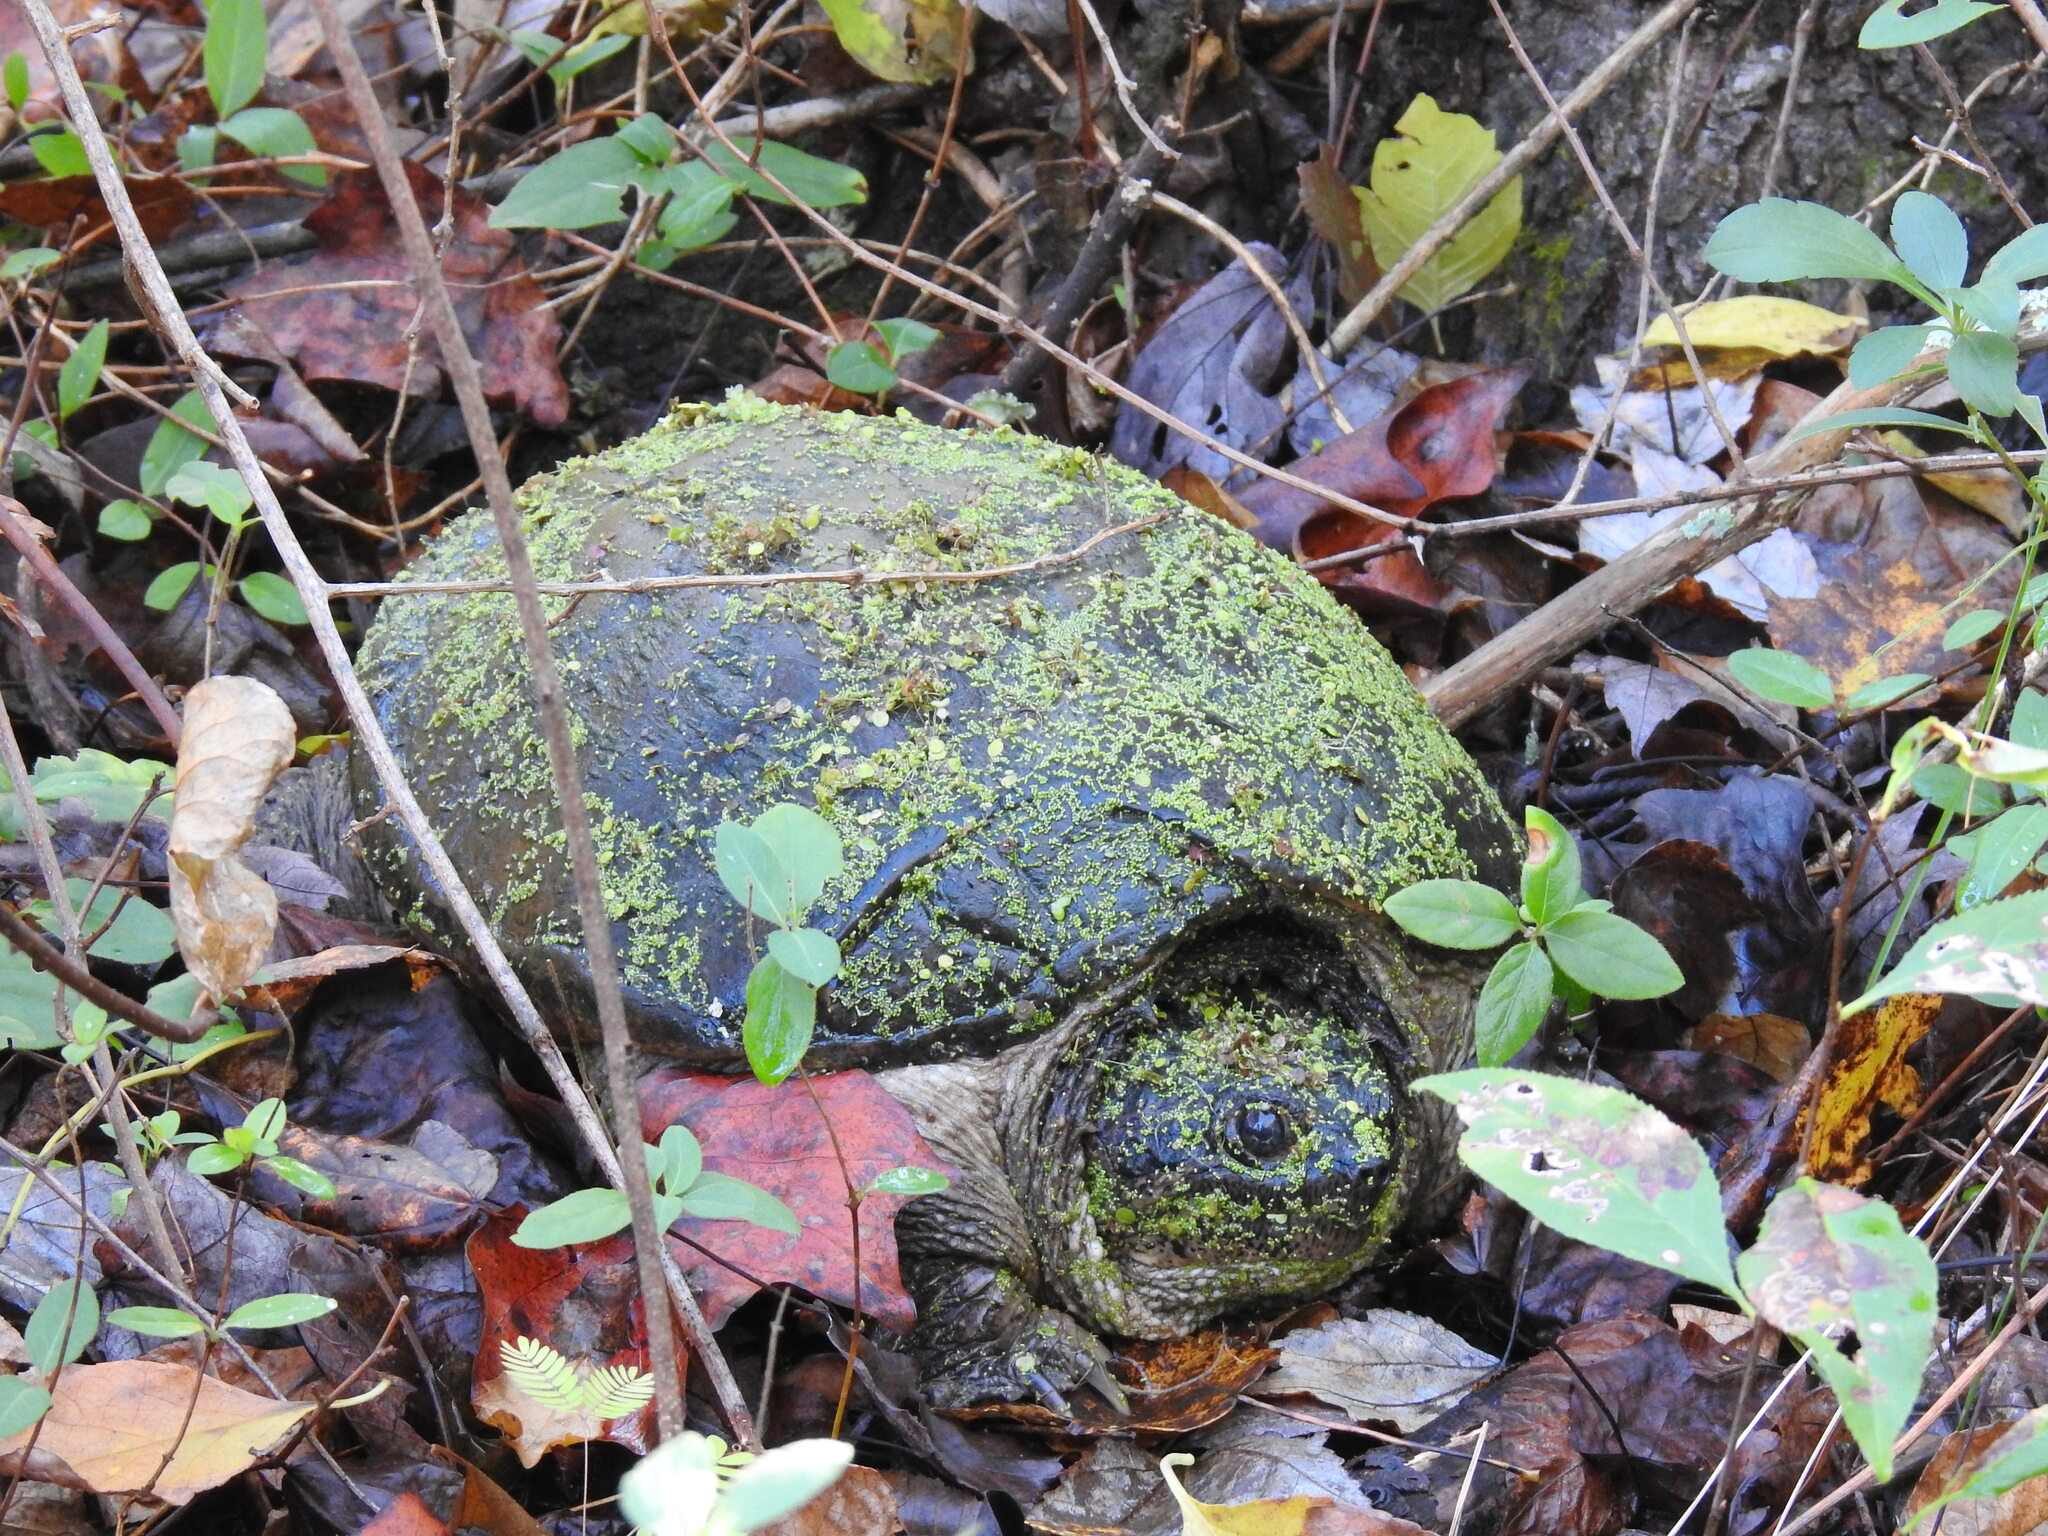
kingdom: Animalia
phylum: Chordata
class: Testudines
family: Chelydridae
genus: Chelydra
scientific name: Chelydra serpentina
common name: Common snapping turtle
